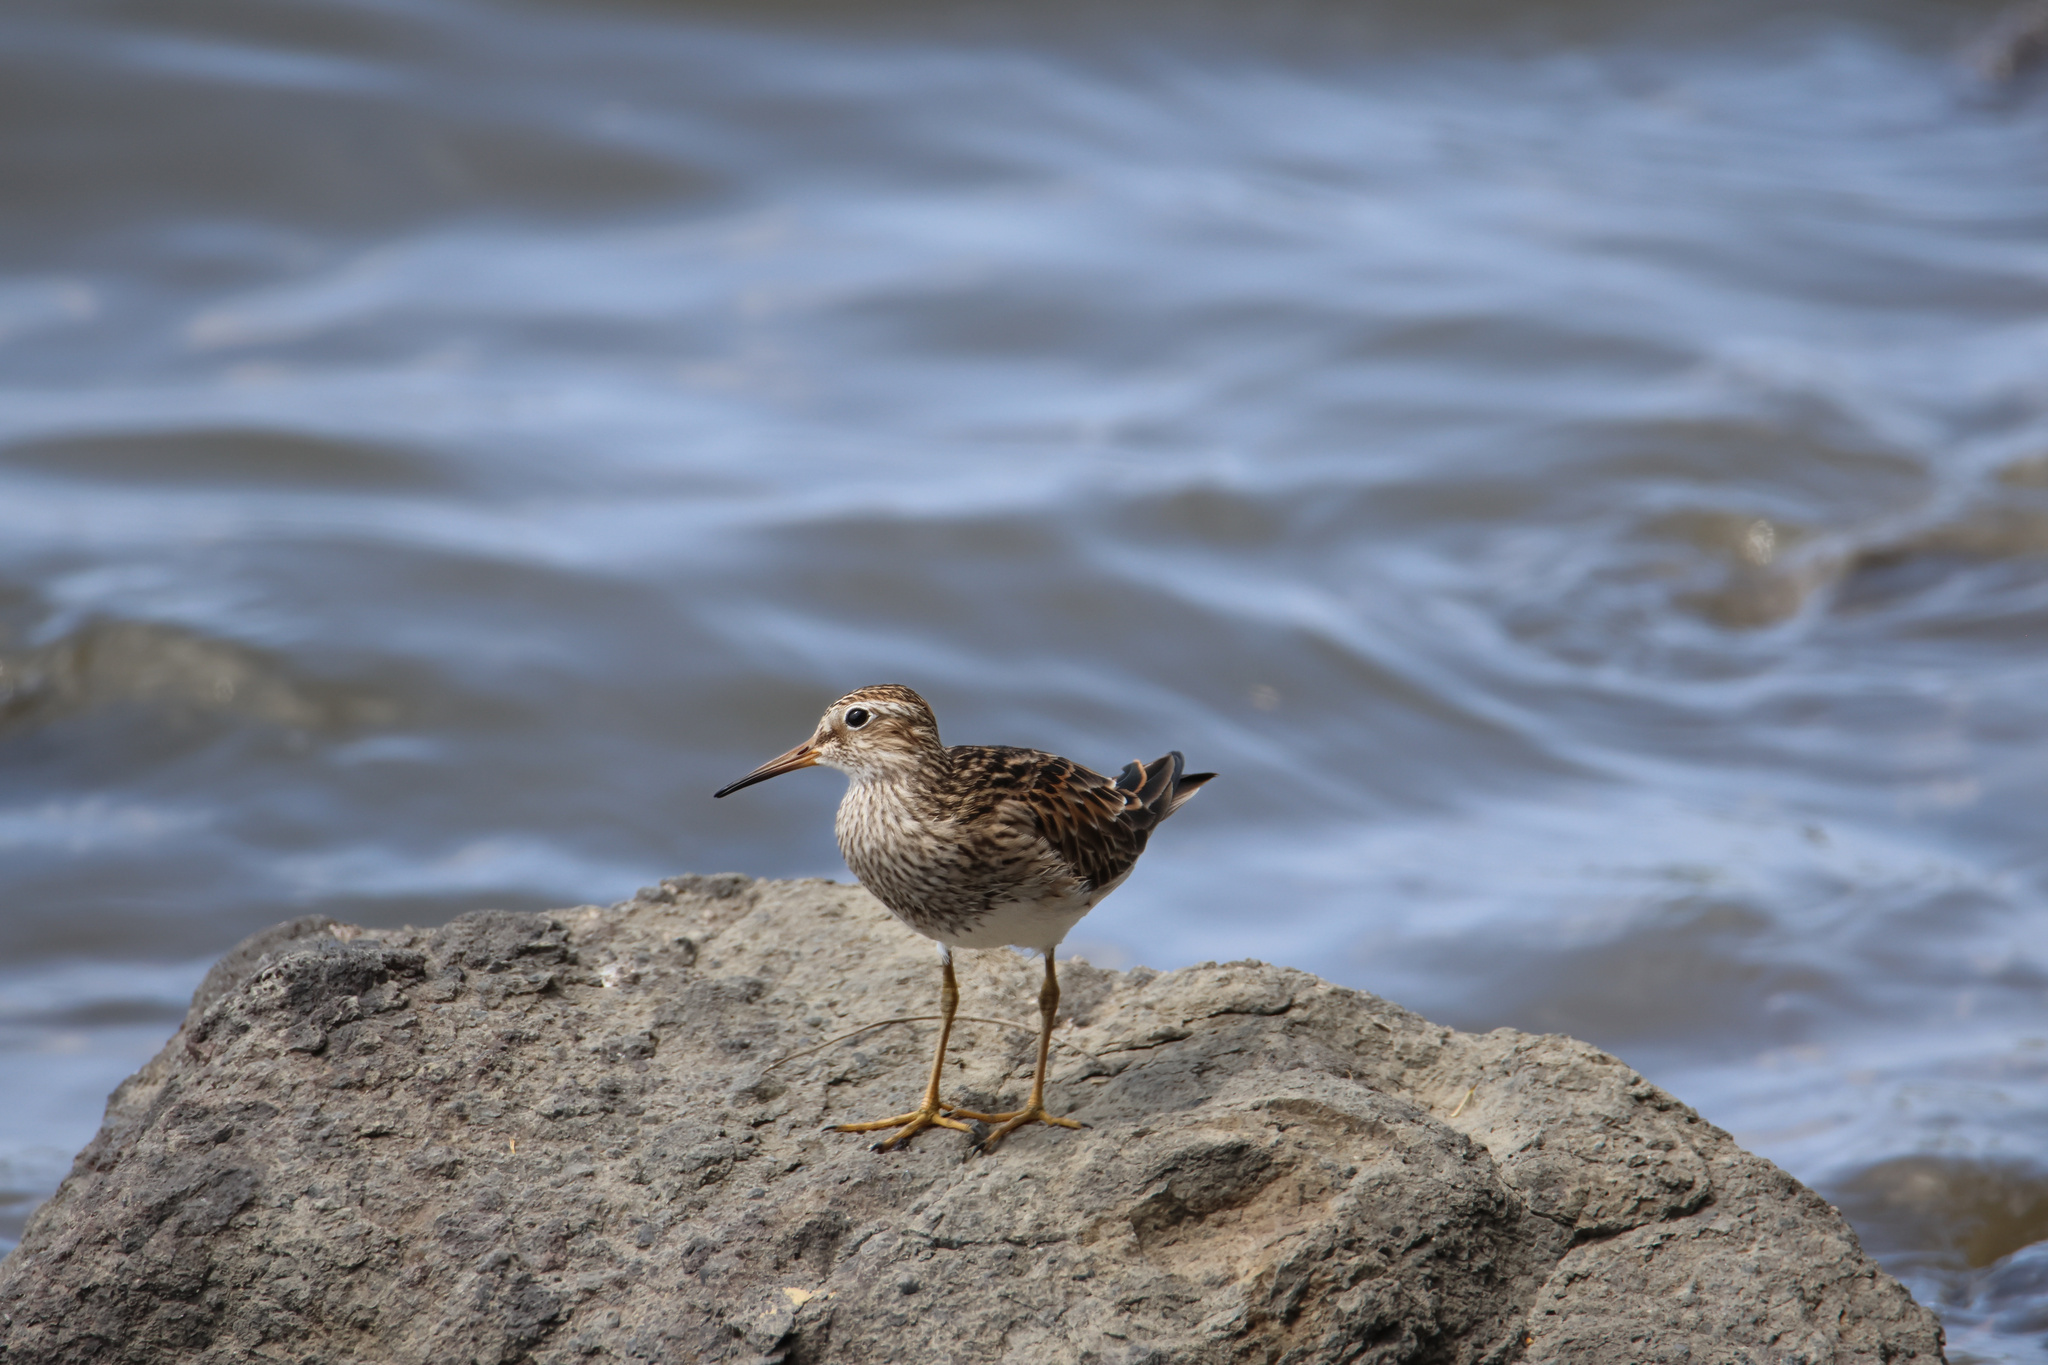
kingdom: Animalia
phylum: Chordata
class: Aves
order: Charadriiformes
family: Scolopacidae
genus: Calidris
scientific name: Calidris melanotos
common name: Pectoral sandpiper
